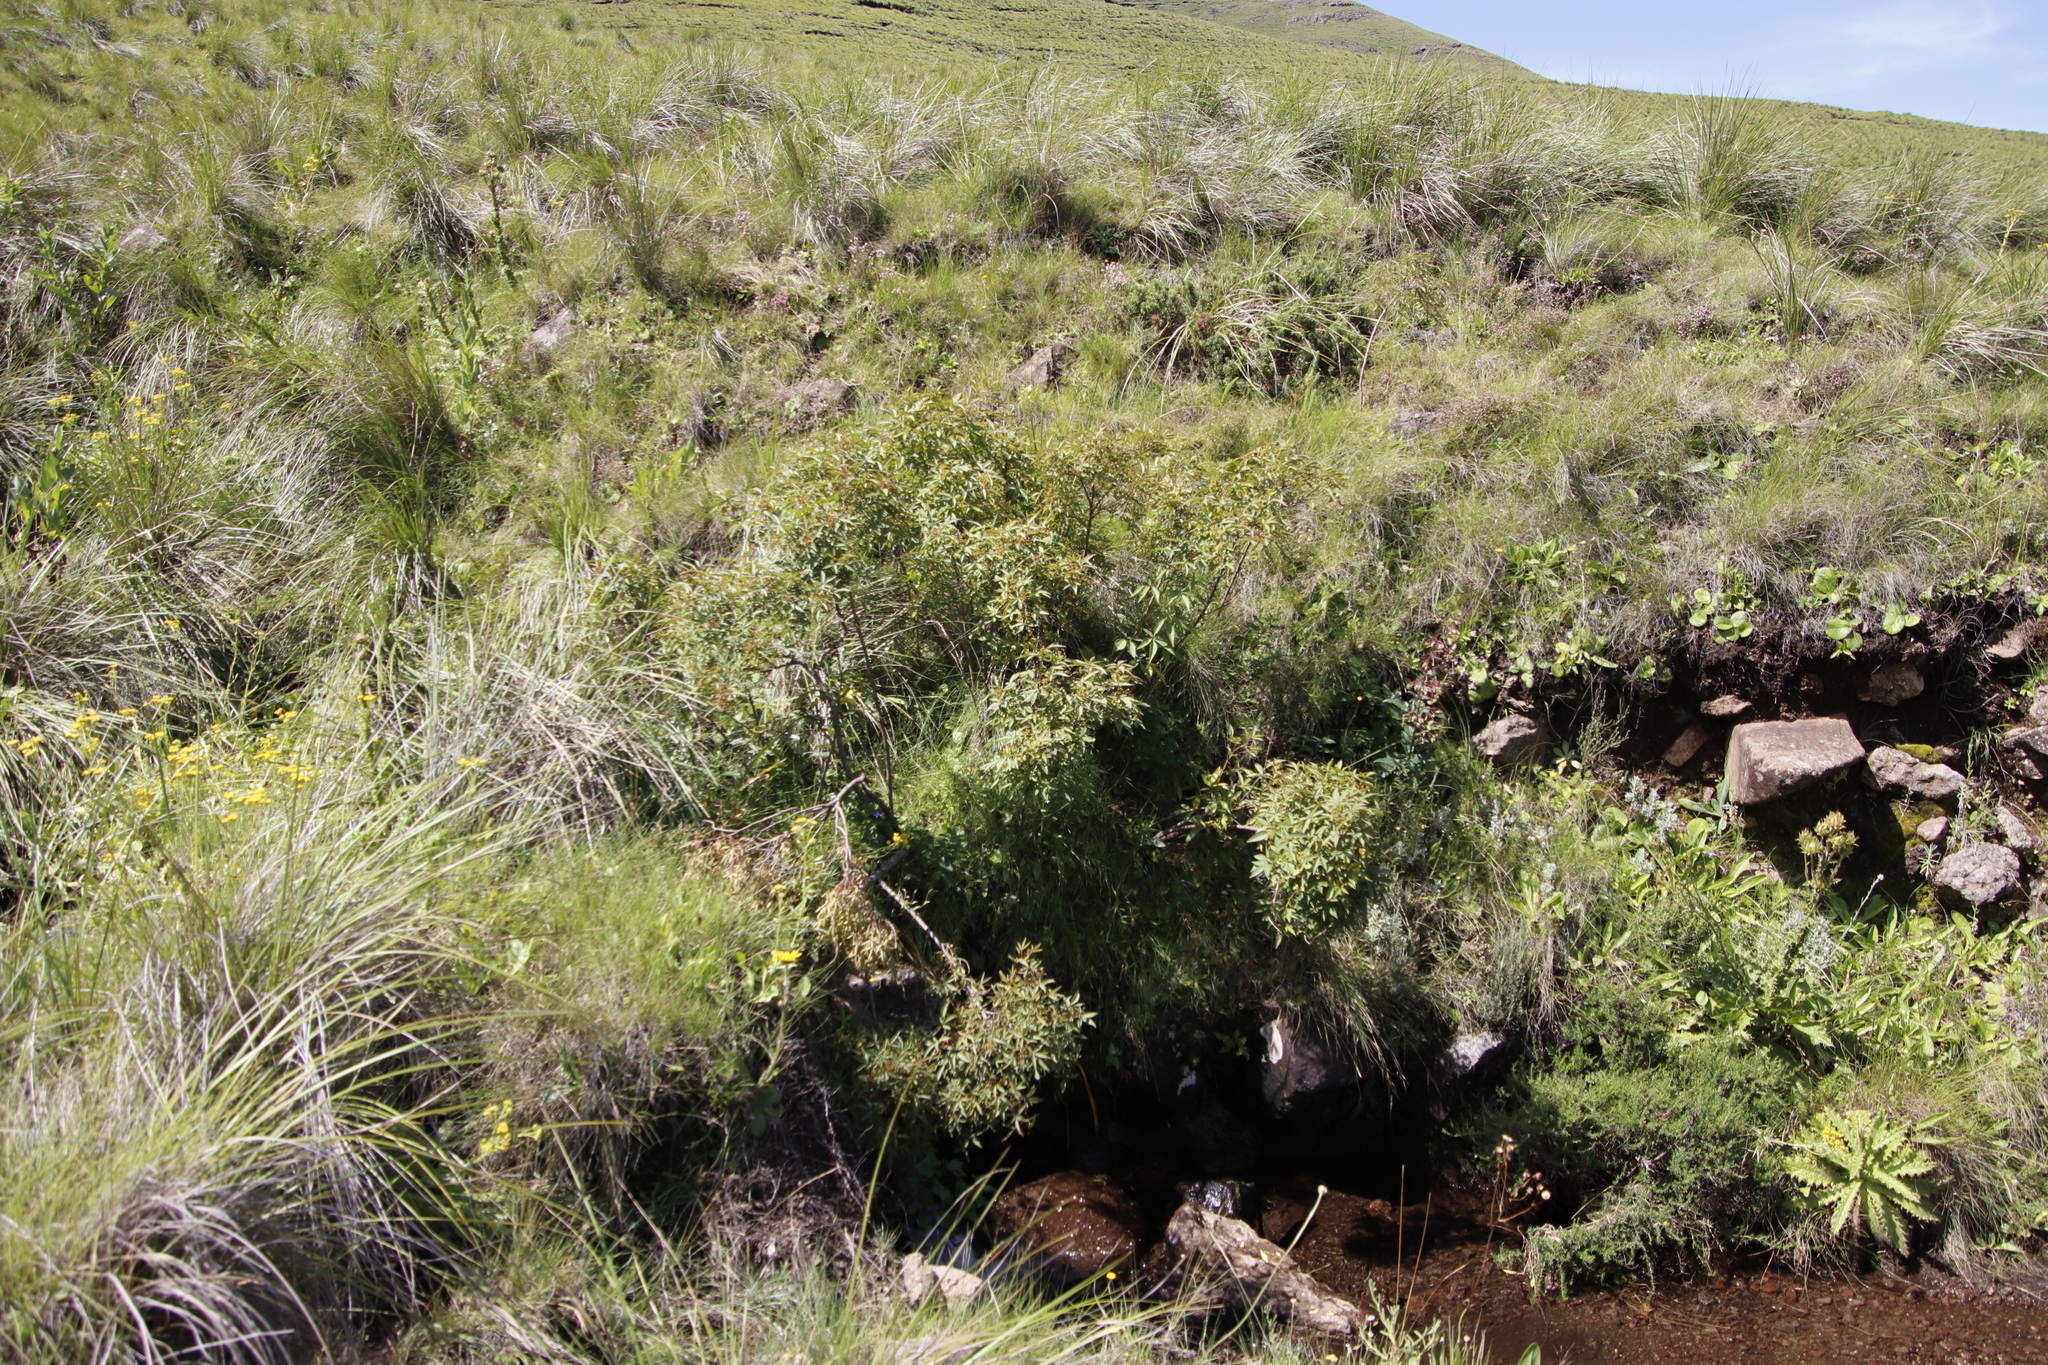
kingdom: Plantae
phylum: Tracheophyta
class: Magnoliopsida
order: Sapindales
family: Anacardiaceae
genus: Searsia
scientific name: Searsia montana
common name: Drakensberg karee
